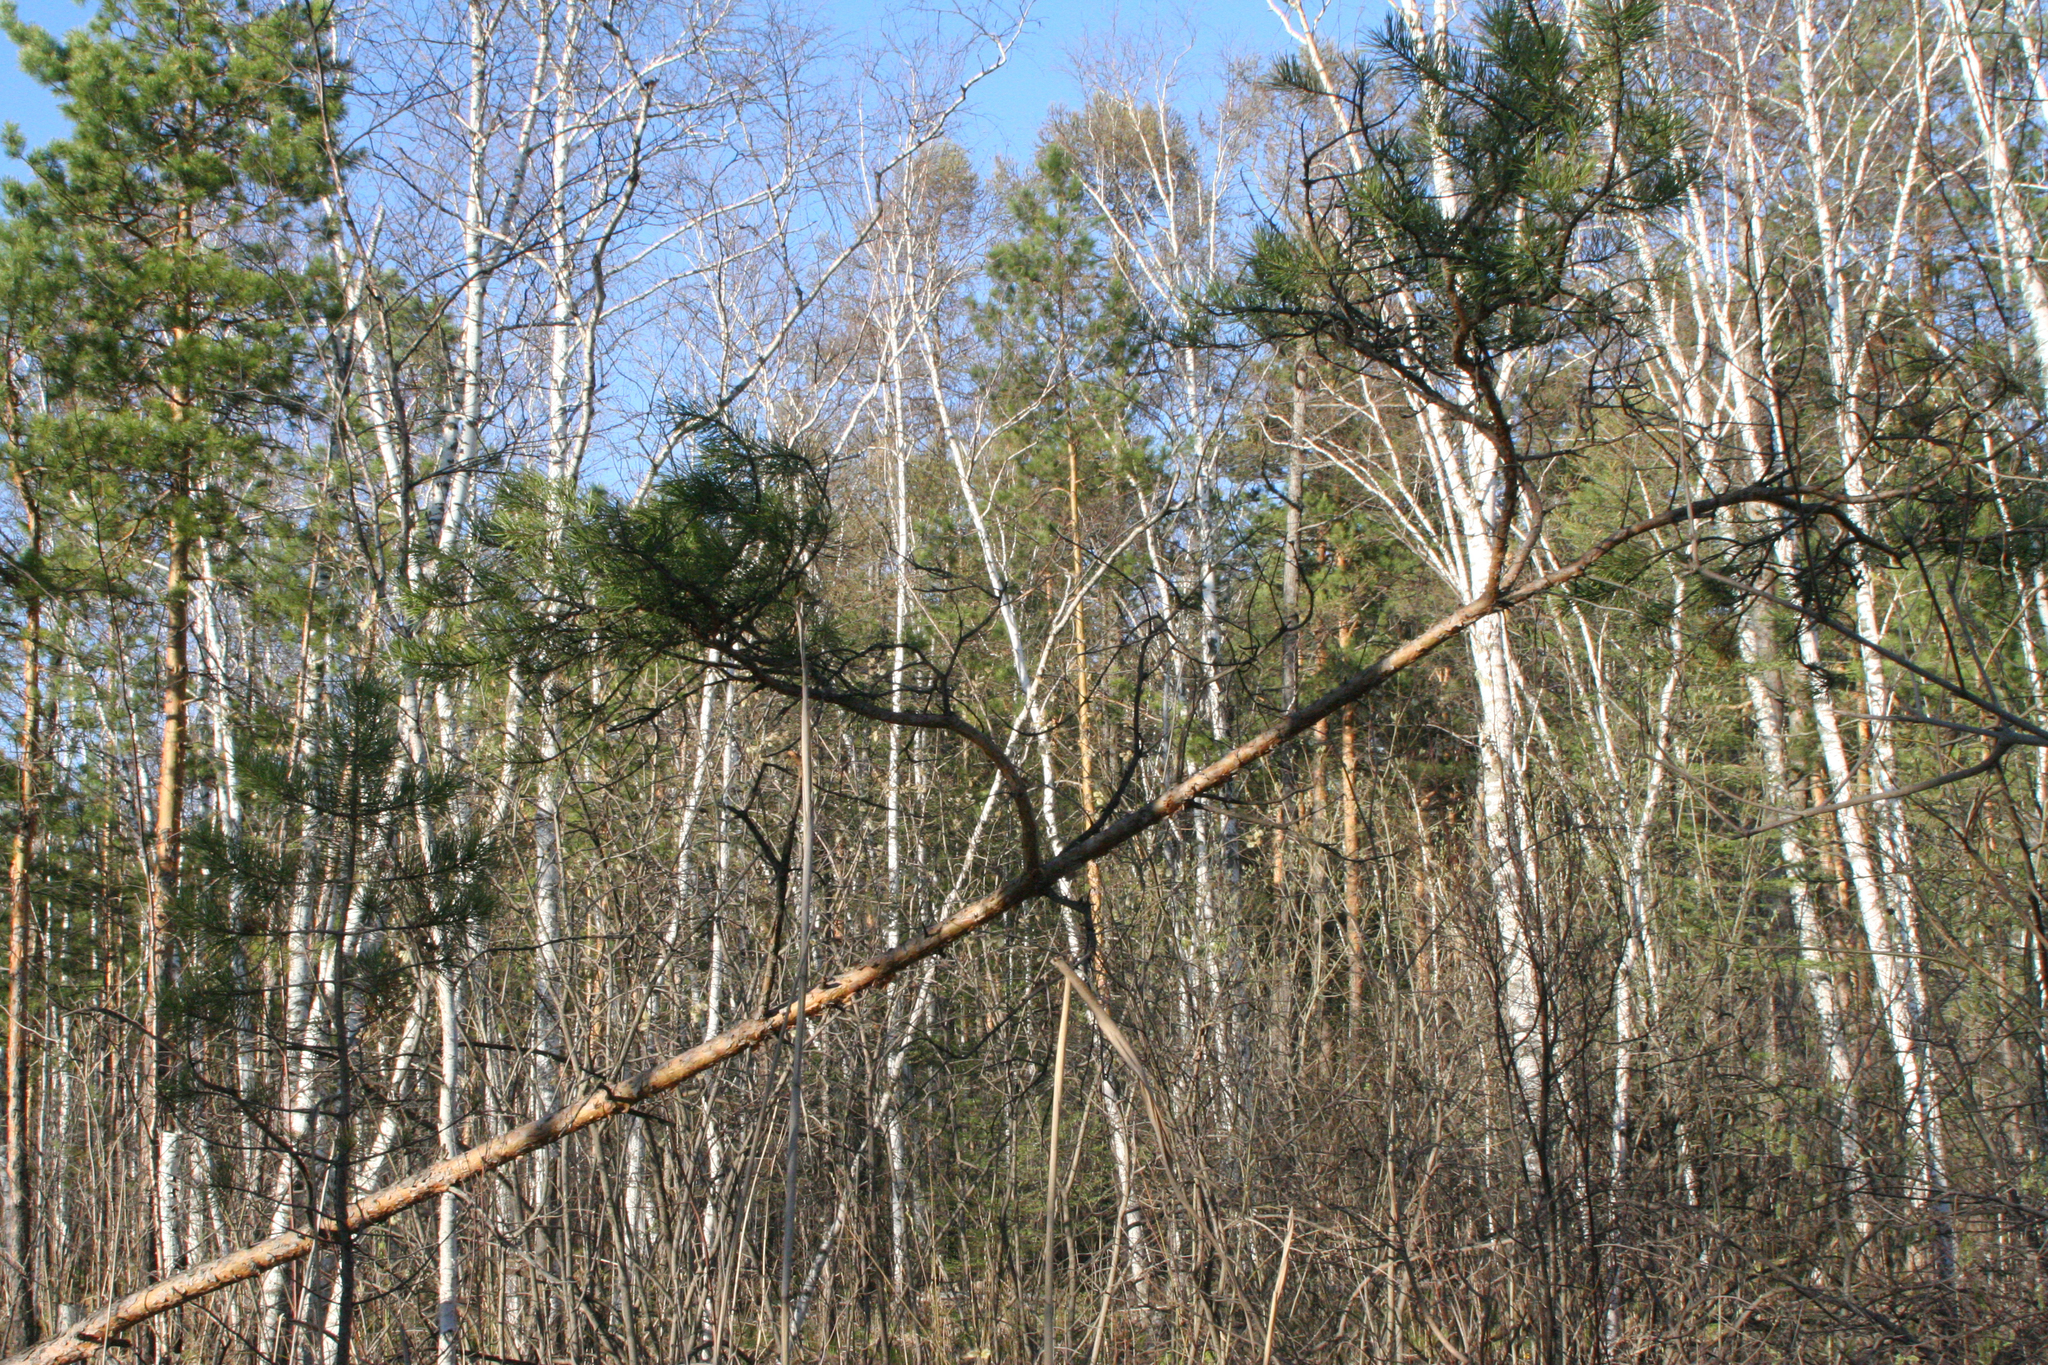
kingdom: Plantae
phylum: Tracheophyta
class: Pinopsida
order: Pinales
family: Pinaceae
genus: Pinus
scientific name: Pinus sylvestris
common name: Scots pine
